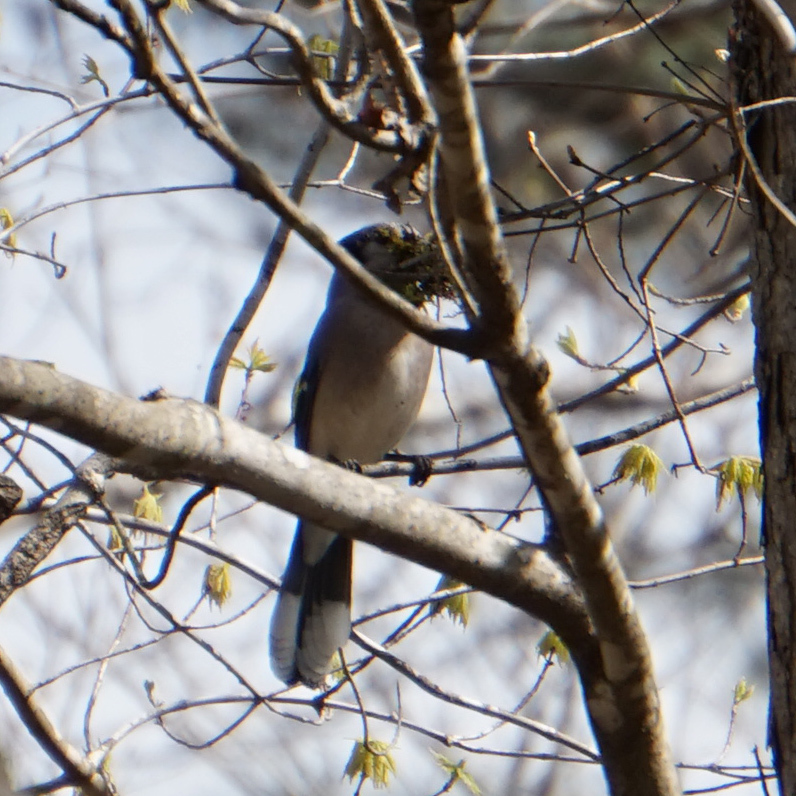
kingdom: Animalia
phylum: Chordata
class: Aves
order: Passeriformes
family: Corvidae
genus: Cyanocitta
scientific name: Cyanocitta cristata
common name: Blue jay
